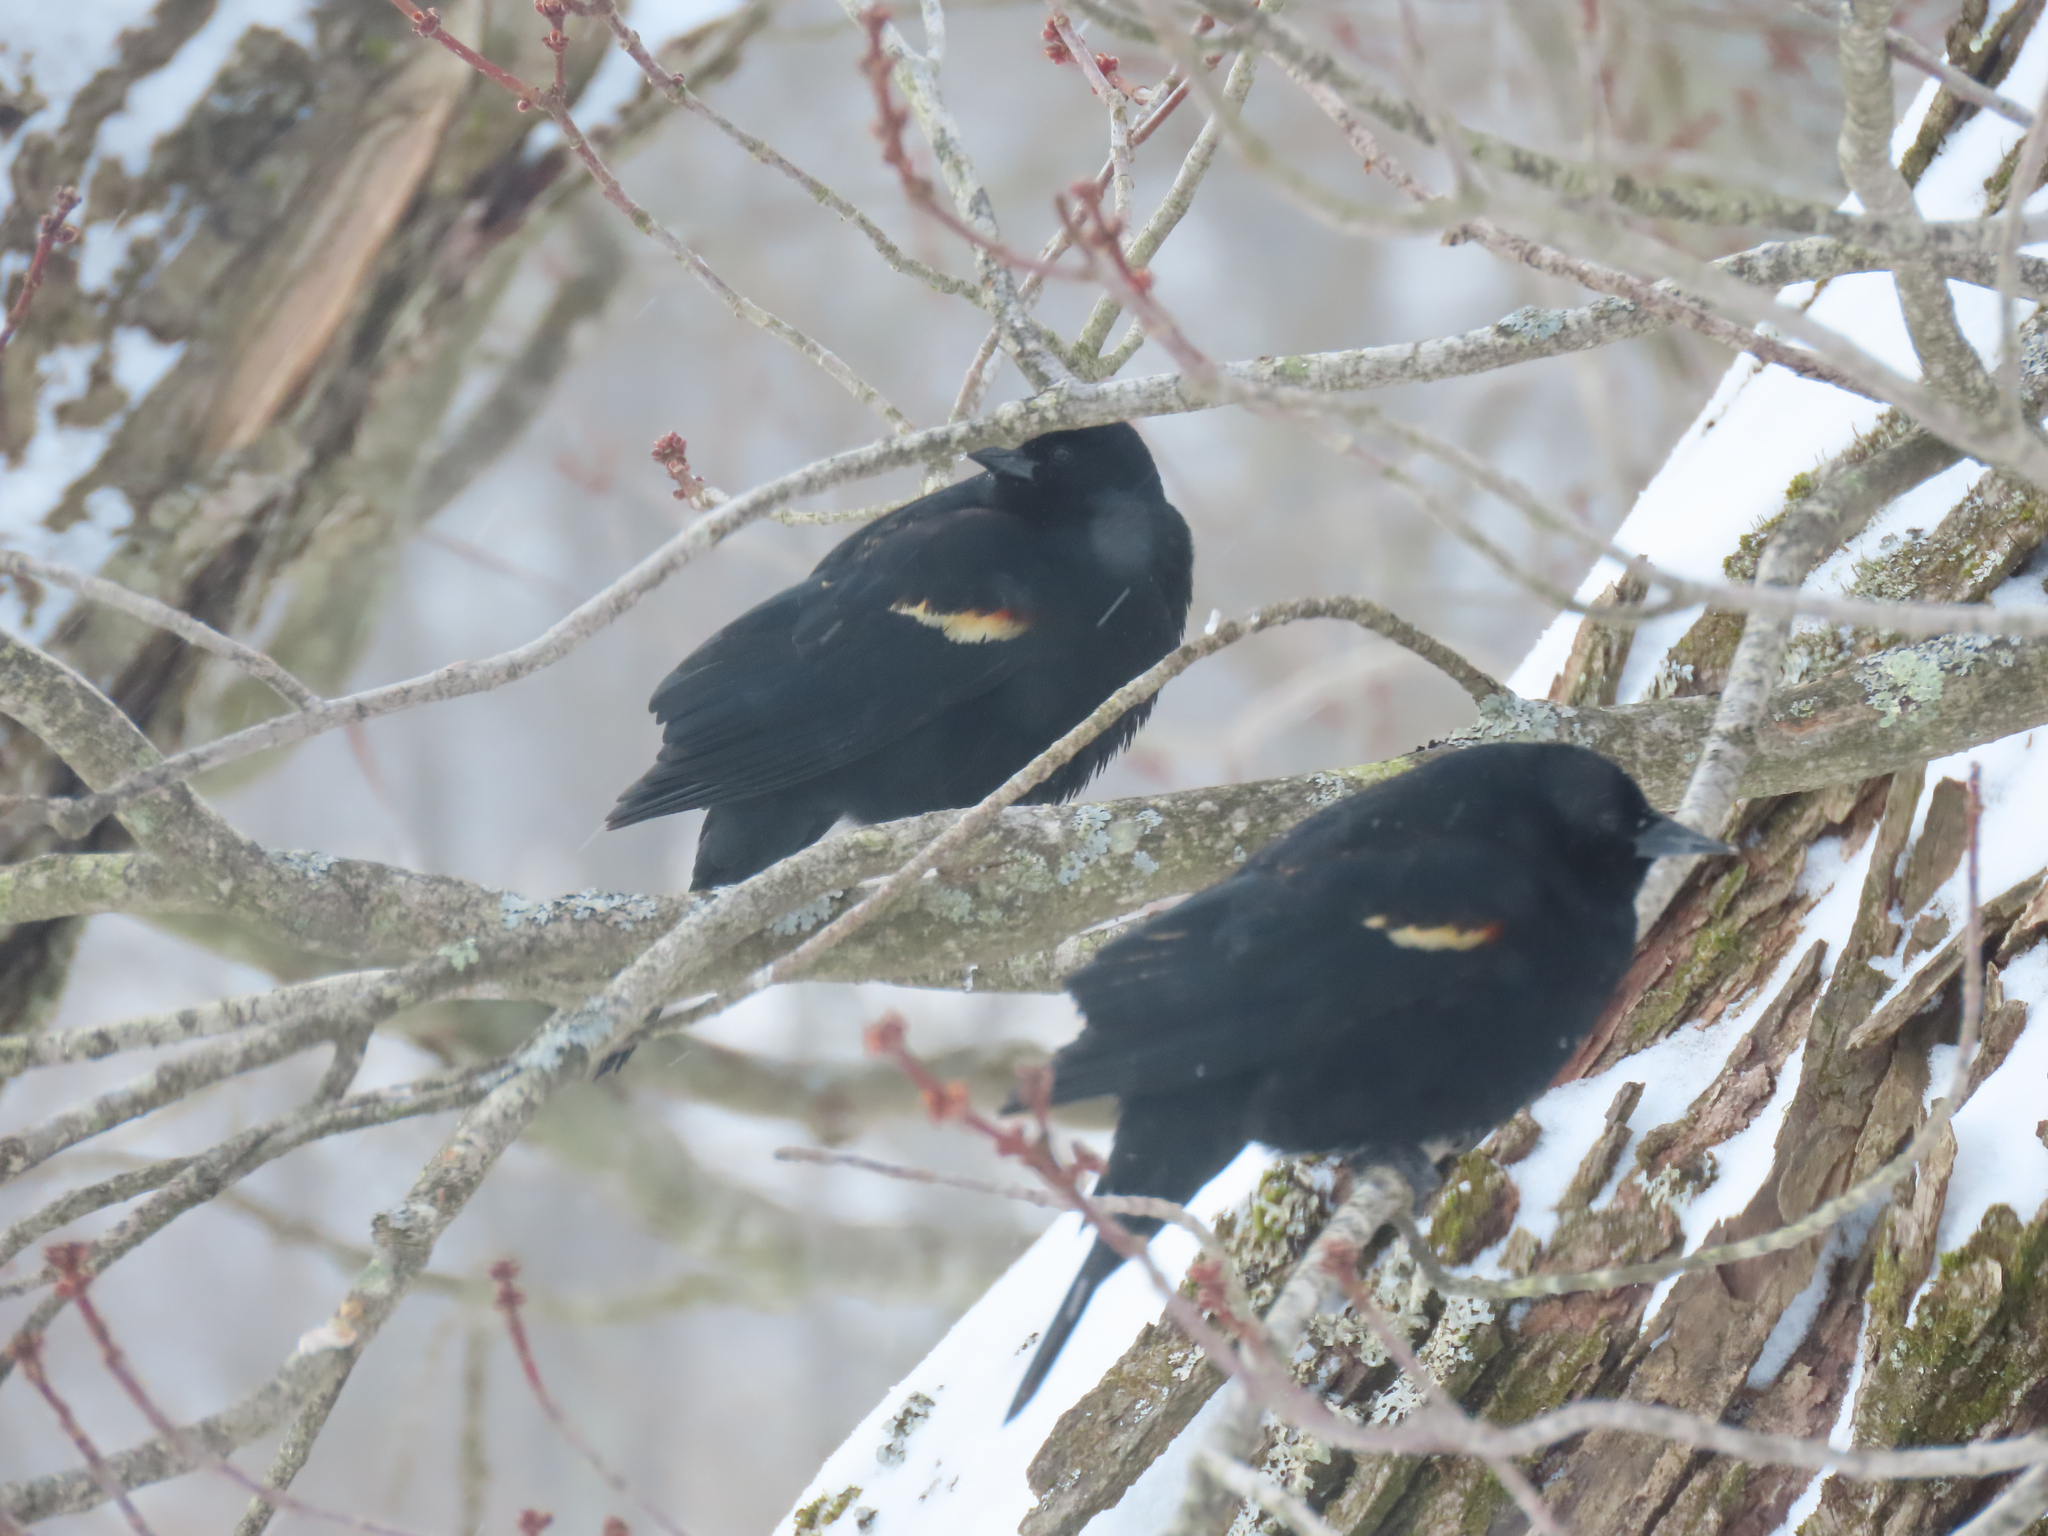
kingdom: Animalia
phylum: Chordata
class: Aves
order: Passeriformes
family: Icteridae
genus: Agelaius
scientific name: Agelaius phoeniceus
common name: Red-winged blackbird
